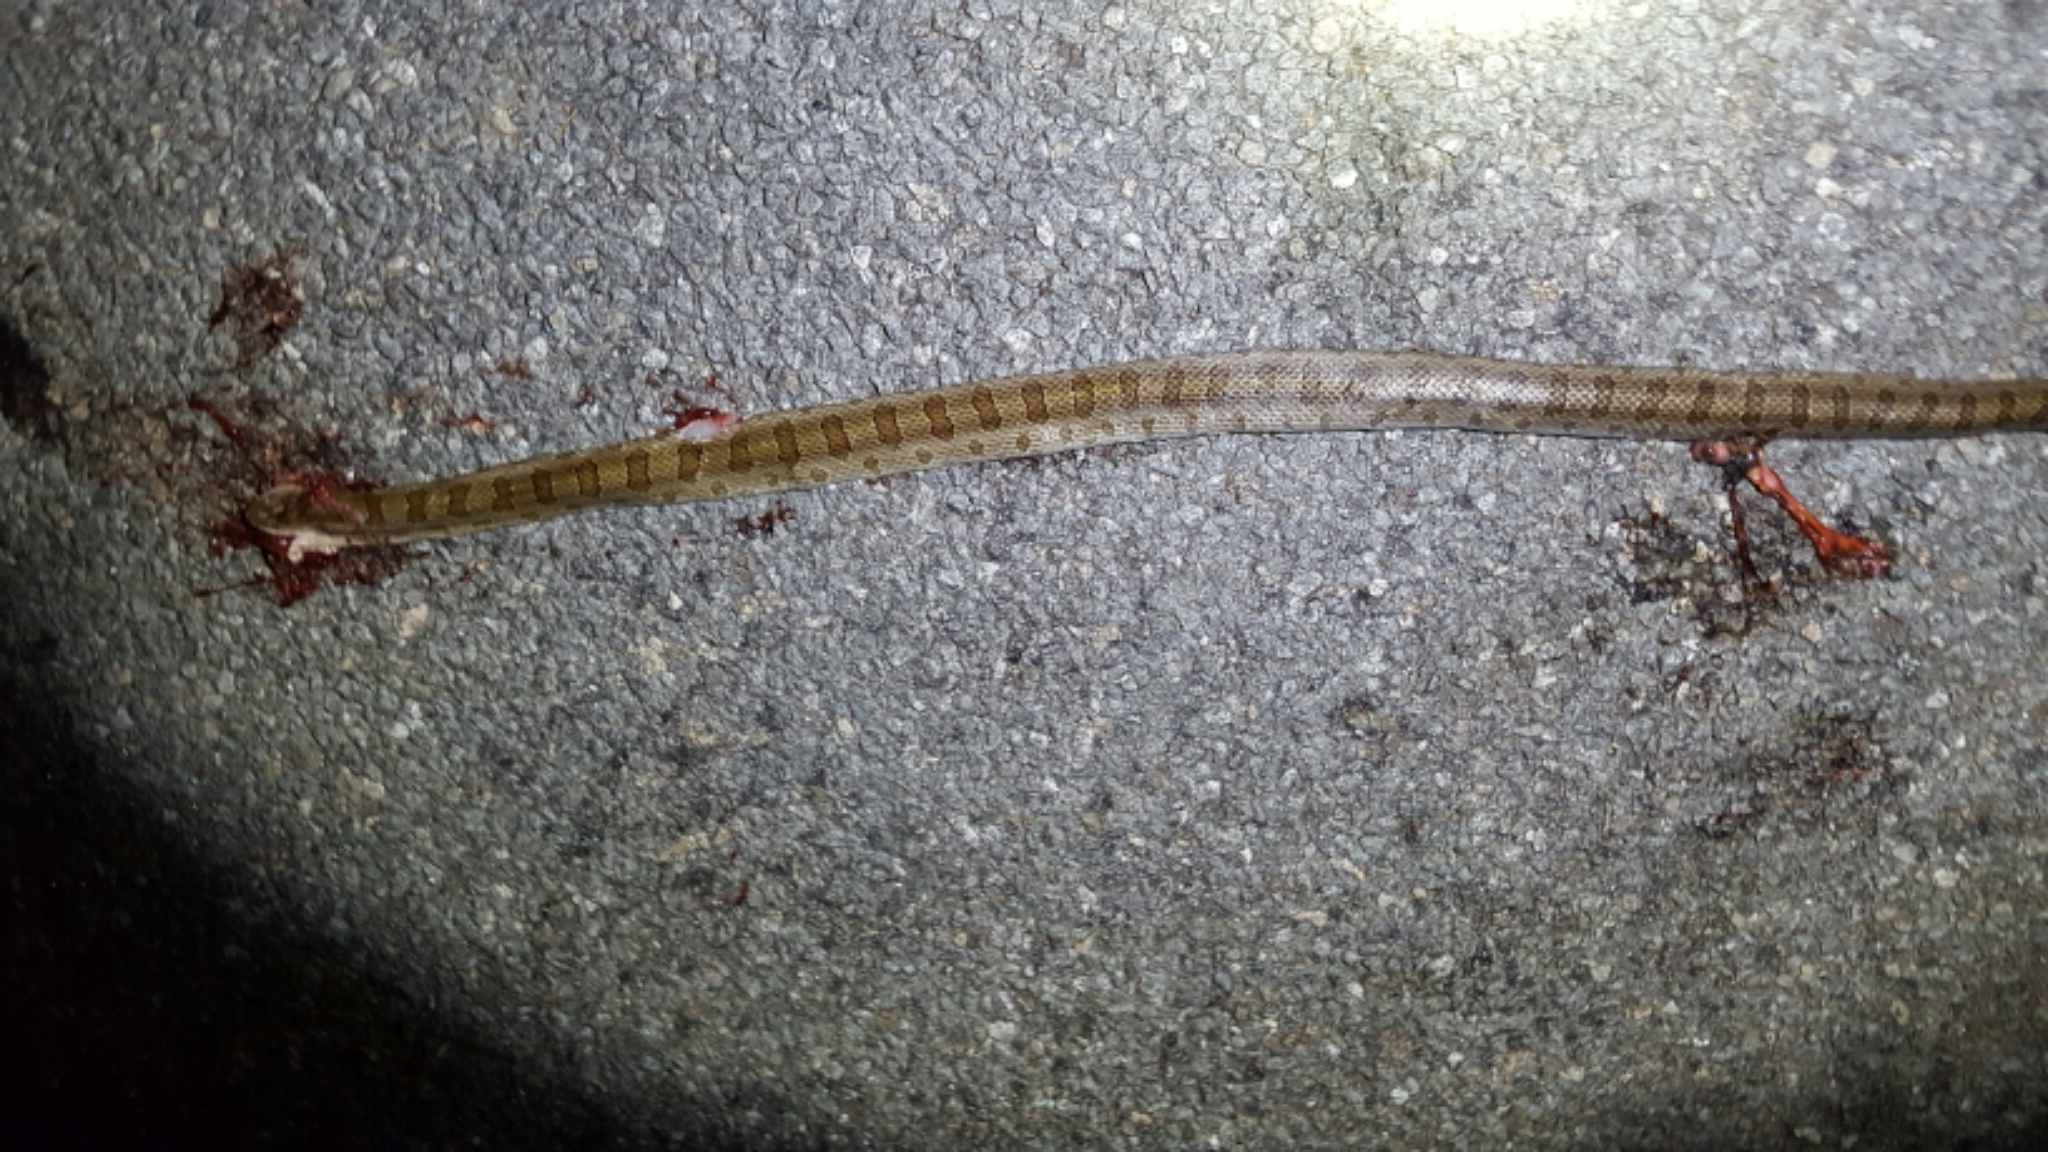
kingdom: Animalia
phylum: Chordata
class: Squamata
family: Colubridae
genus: Lampropeltis
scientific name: Lampropeltis calligaster
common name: Prairie kingsnake
